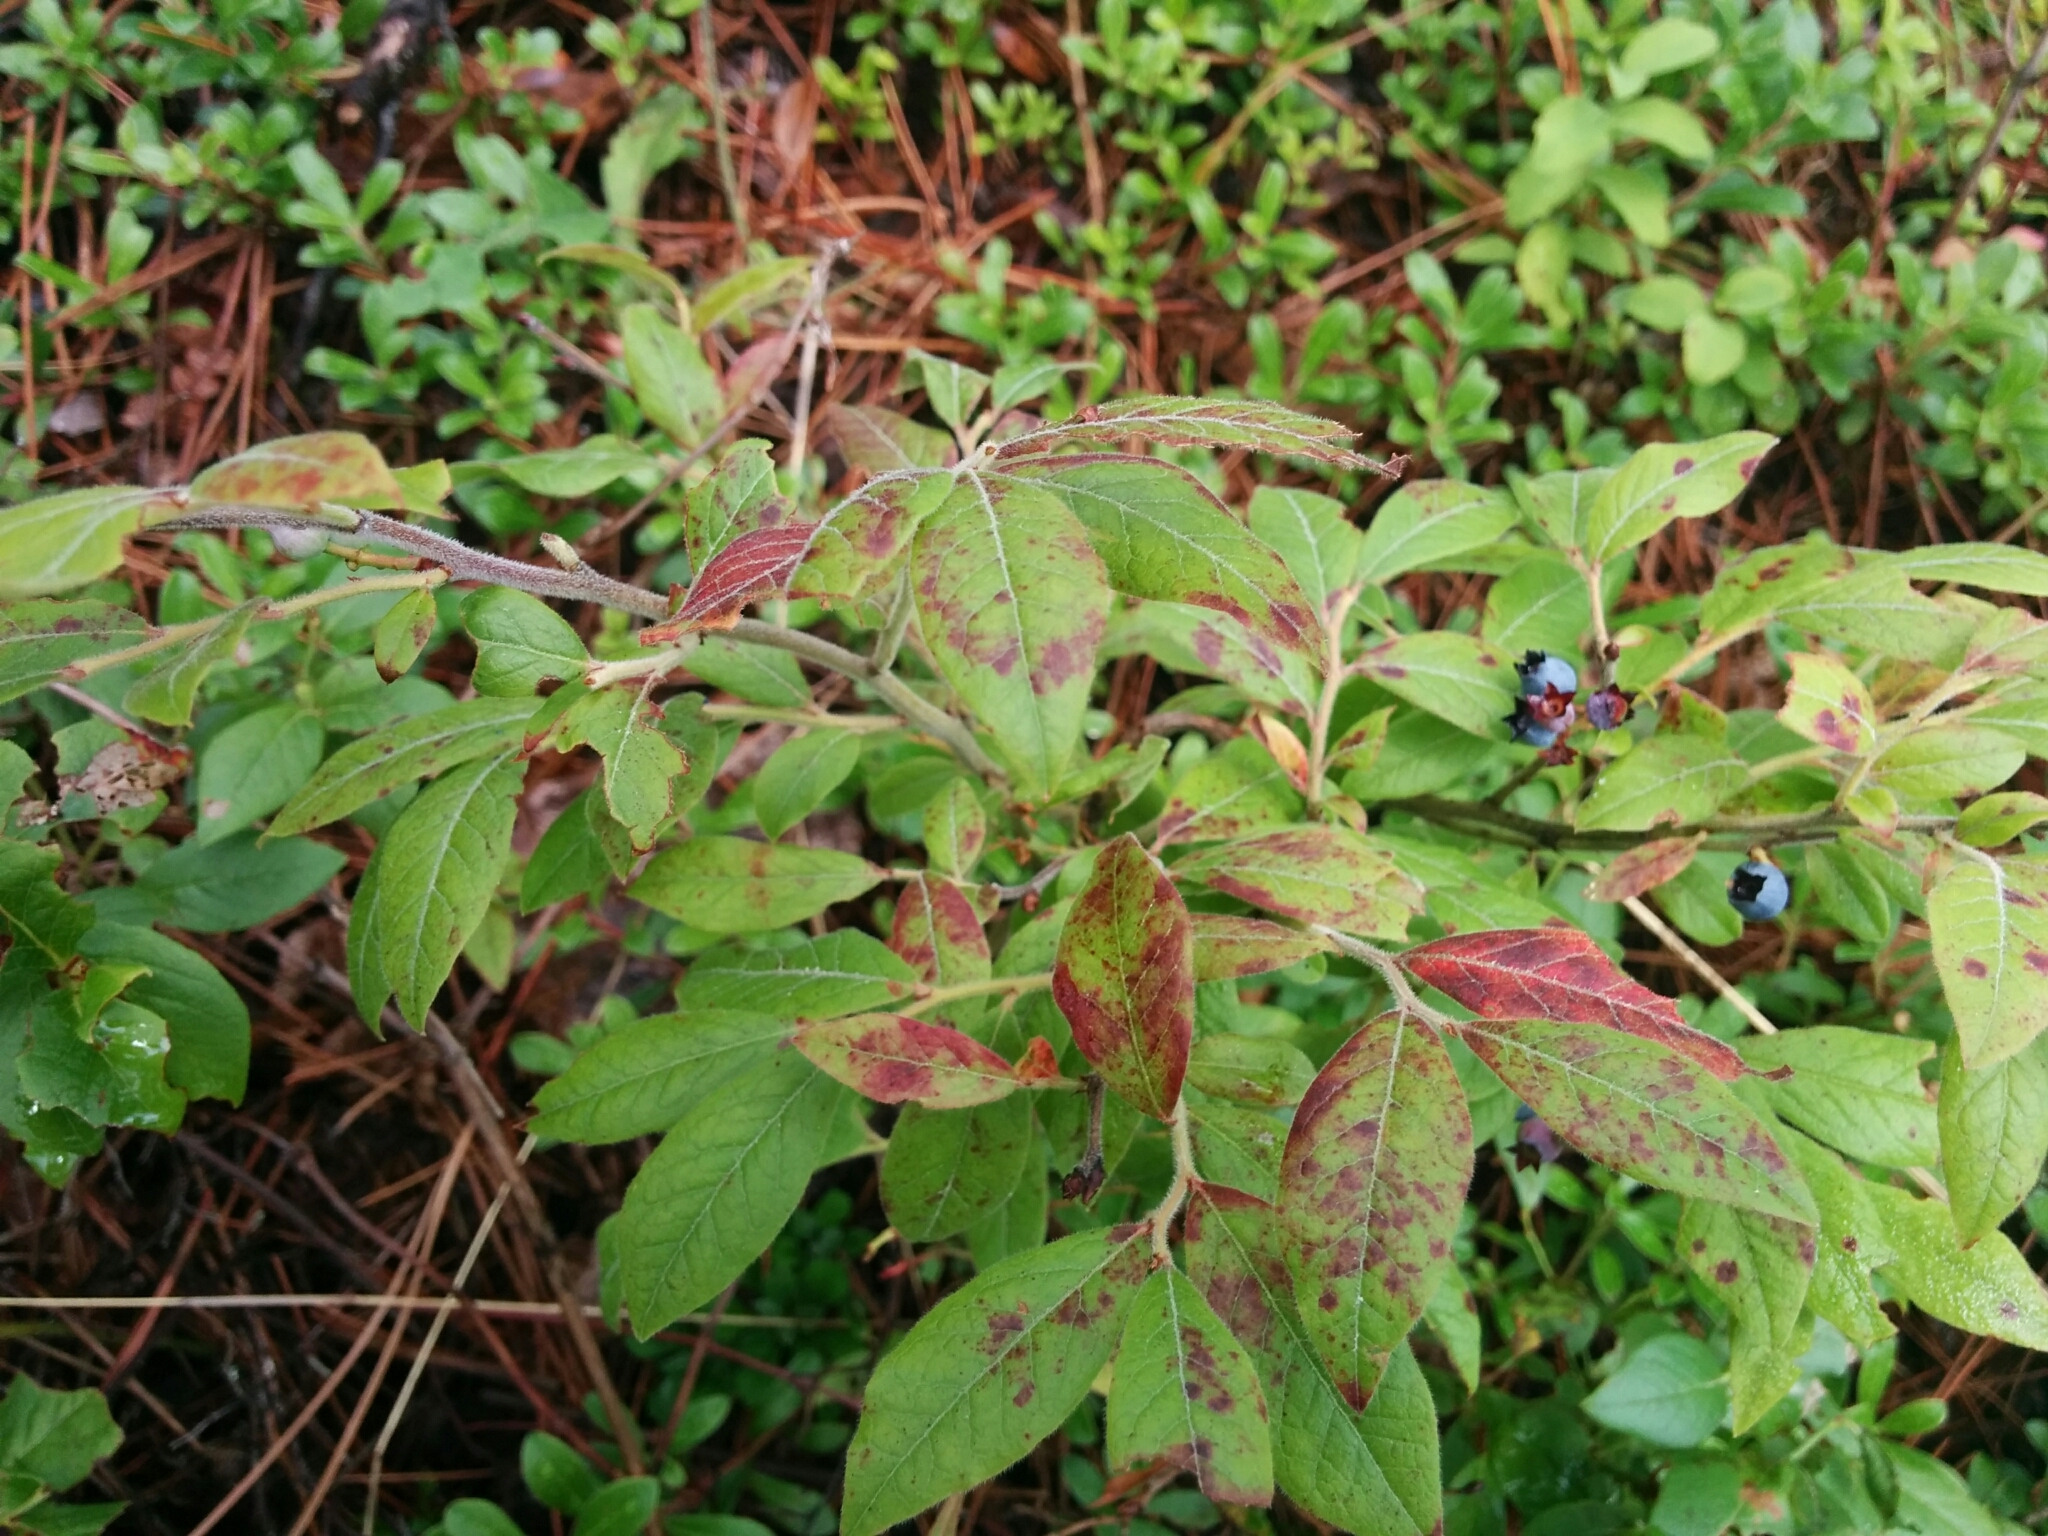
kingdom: Plantae
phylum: Tracheophyta
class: Magnoliopsida
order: Ericales
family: Ericaceae
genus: Vaccinium
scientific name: Vaccinium myrtilloides
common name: Canada blueberry
